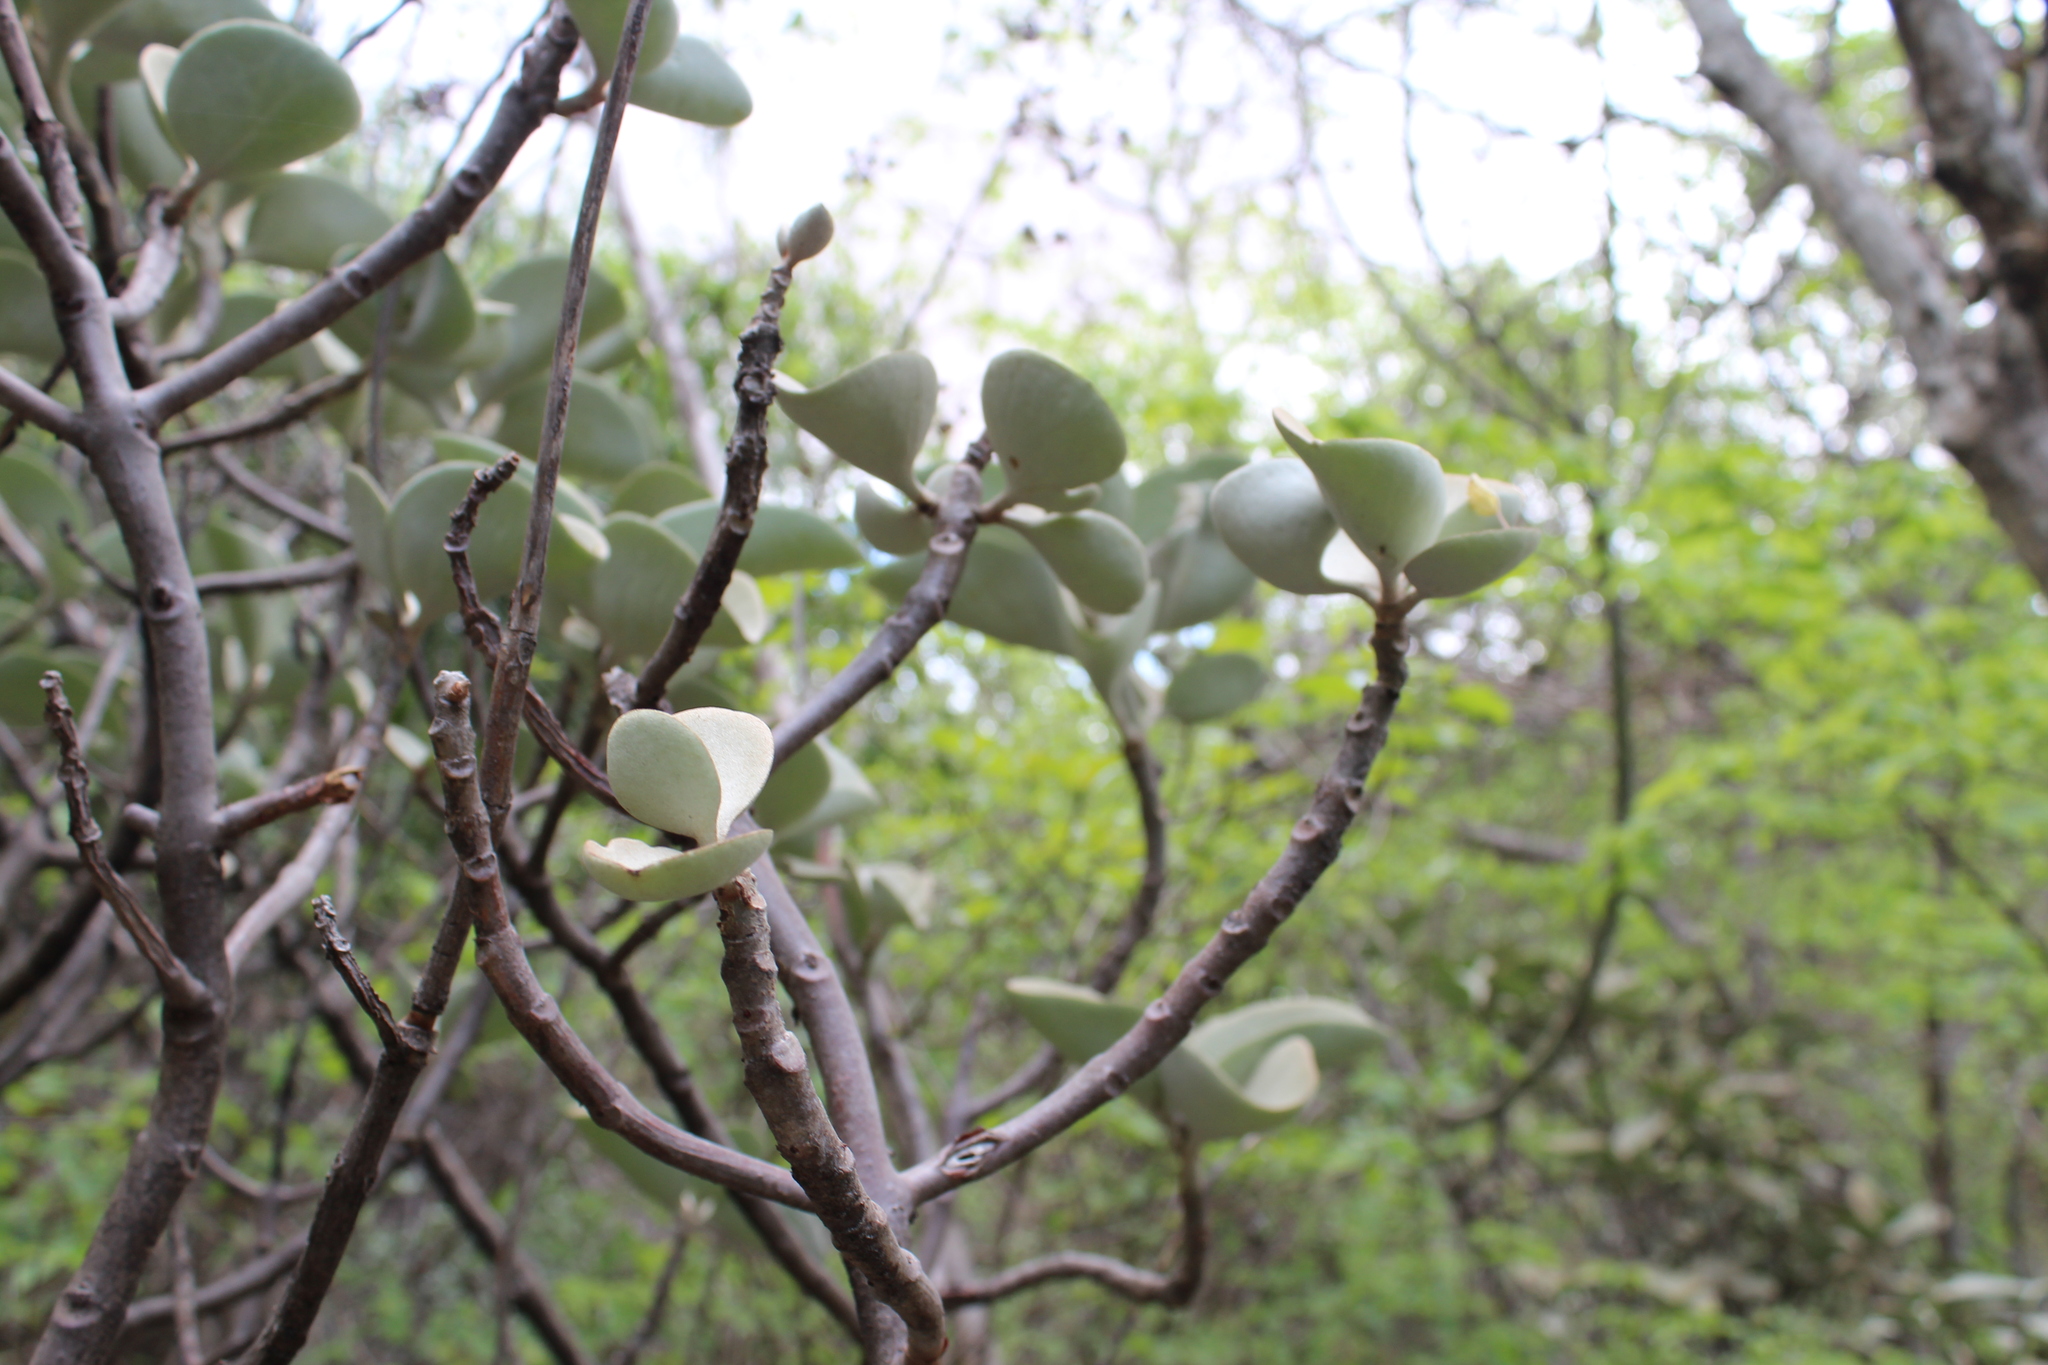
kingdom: Plantae
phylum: Tracheophyta
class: Magnoliopsida
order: Saxifragales
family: Crassulaceae
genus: Kalanchoe
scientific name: Kalanchoe orgyalis
